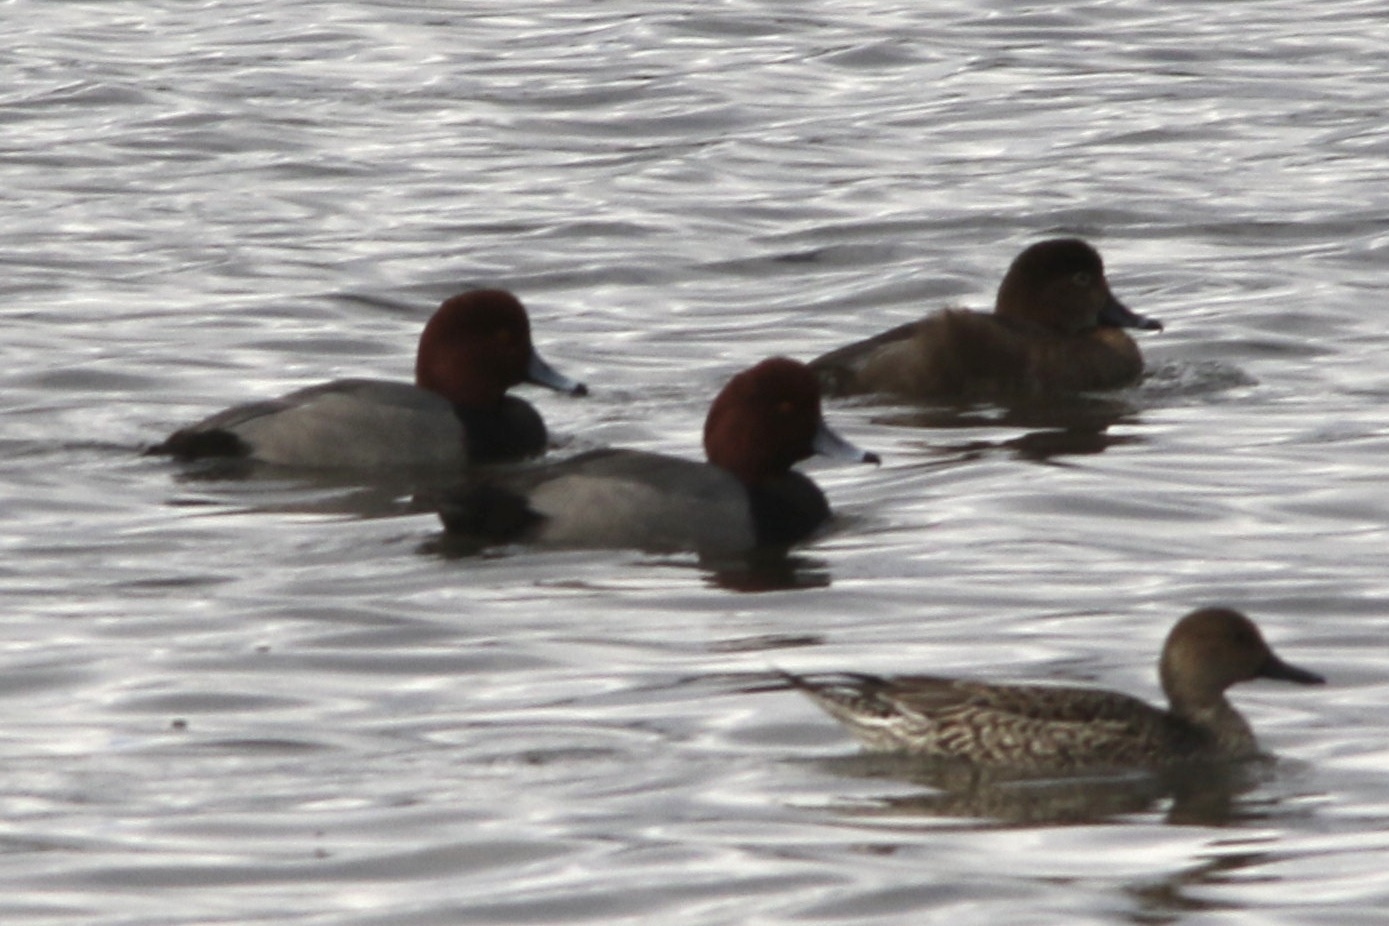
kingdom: Animalia
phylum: Chordata
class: Aves
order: Anseriformes
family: Anatidae
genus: Aythya
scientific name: Aythya americana
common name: Redhead
